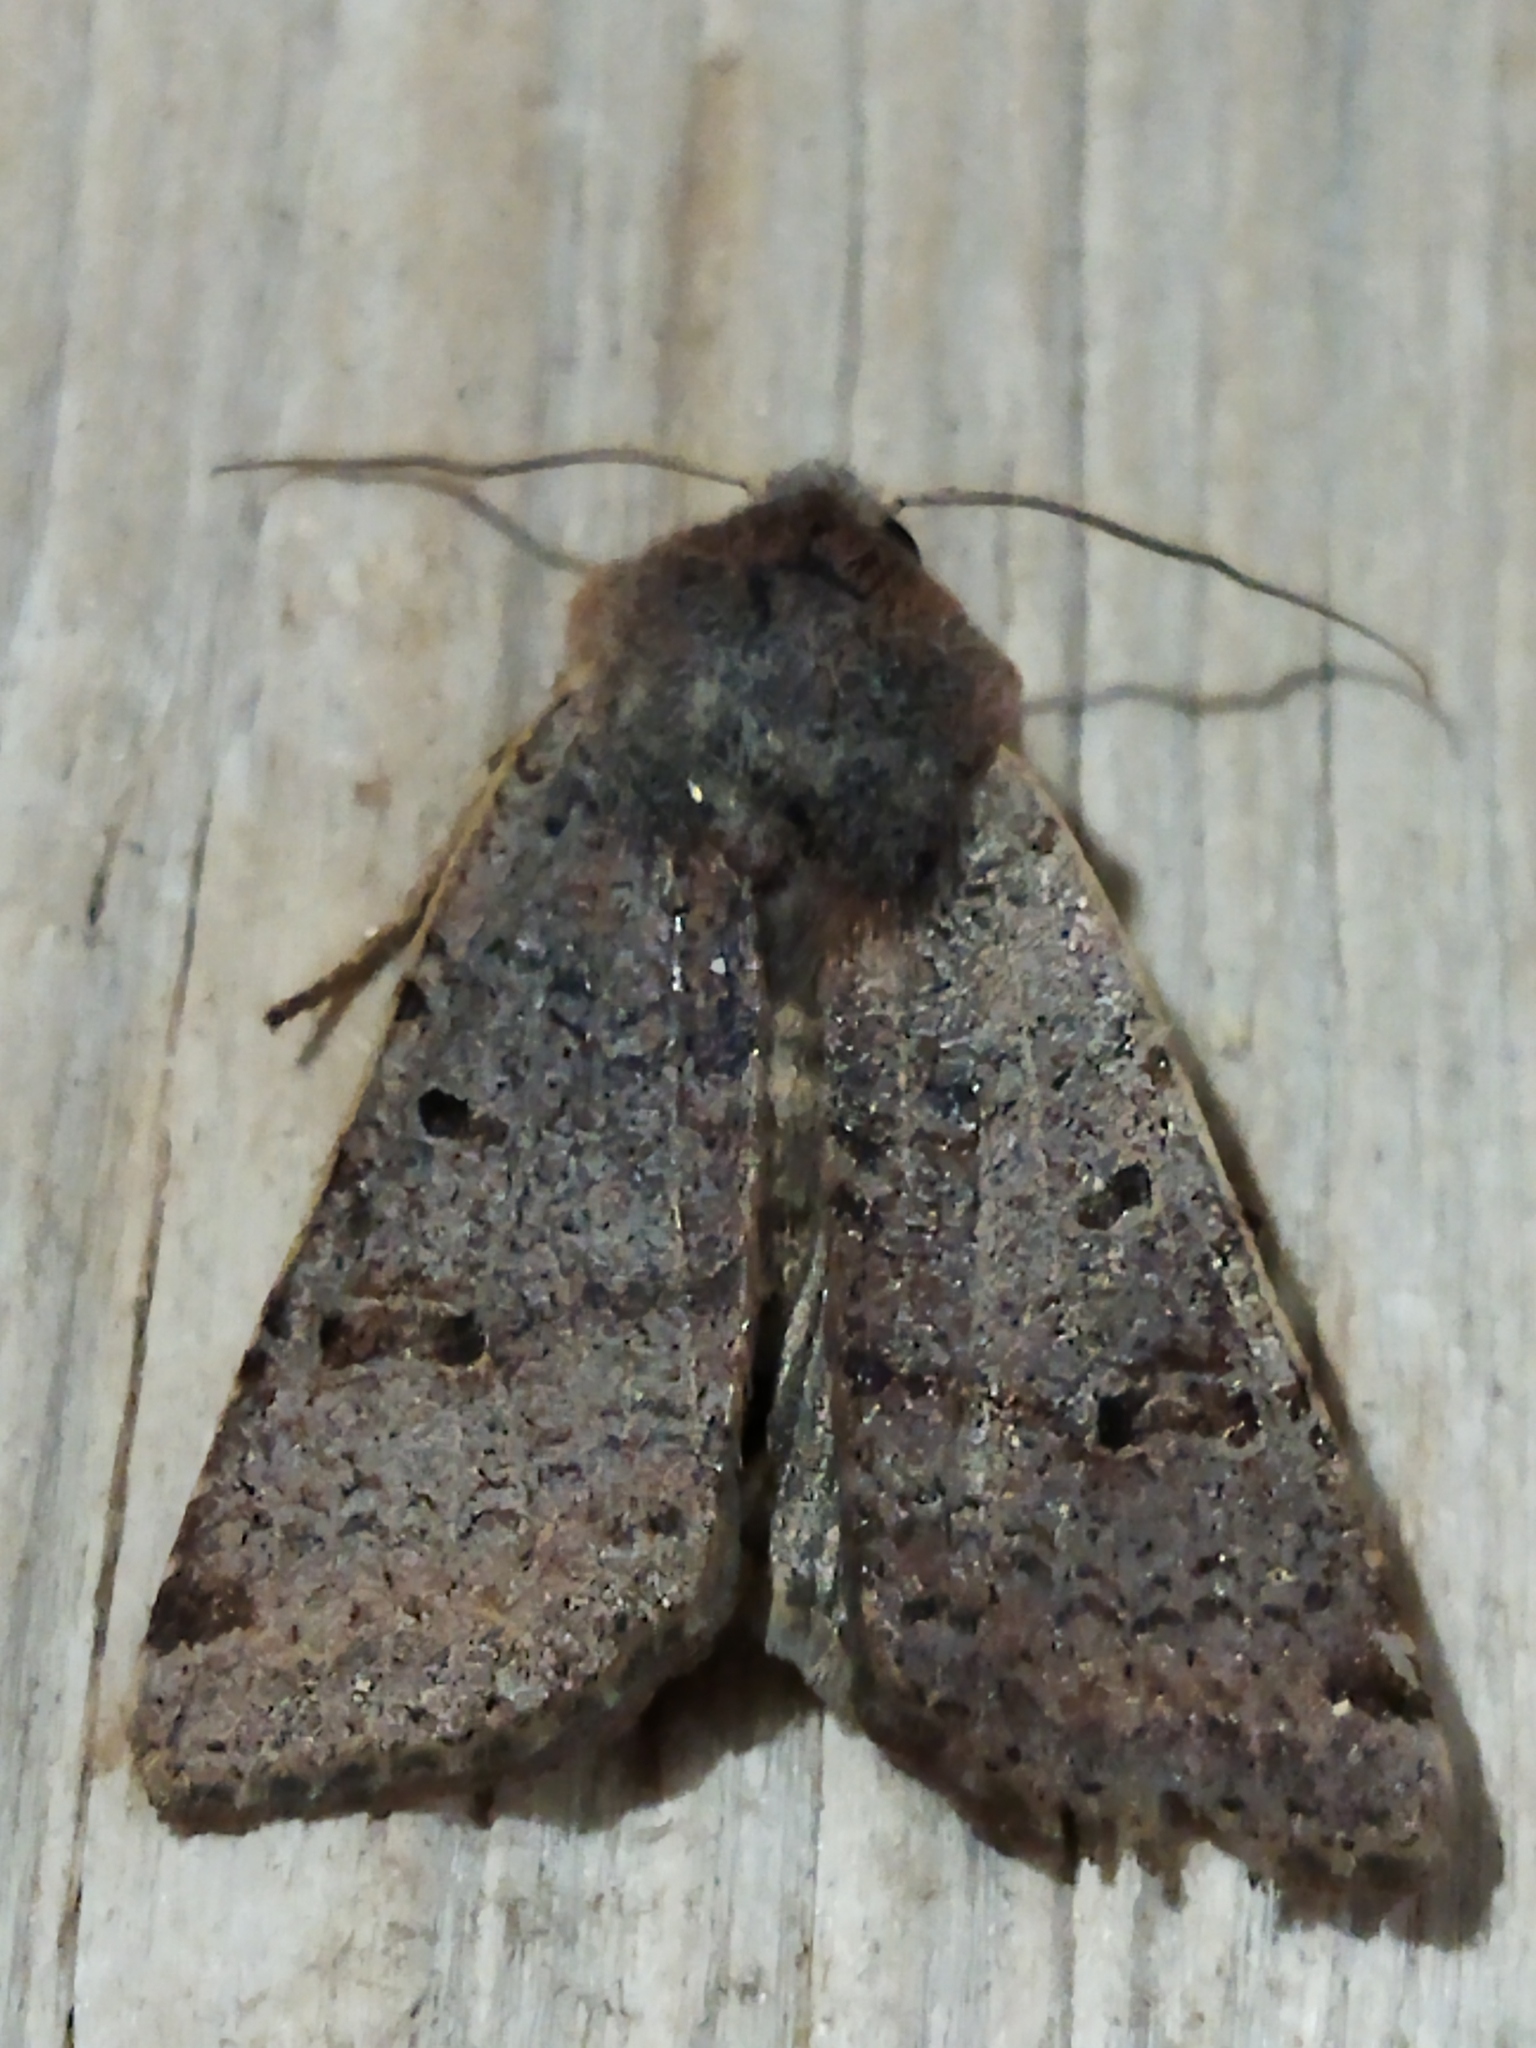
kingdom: Animalia
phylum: Arthropoda
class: Insecta
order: Lepidoptera
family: Noctuidae
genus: Agrochola
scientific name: Agrochola lychnidis
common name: Beaded chestnut
